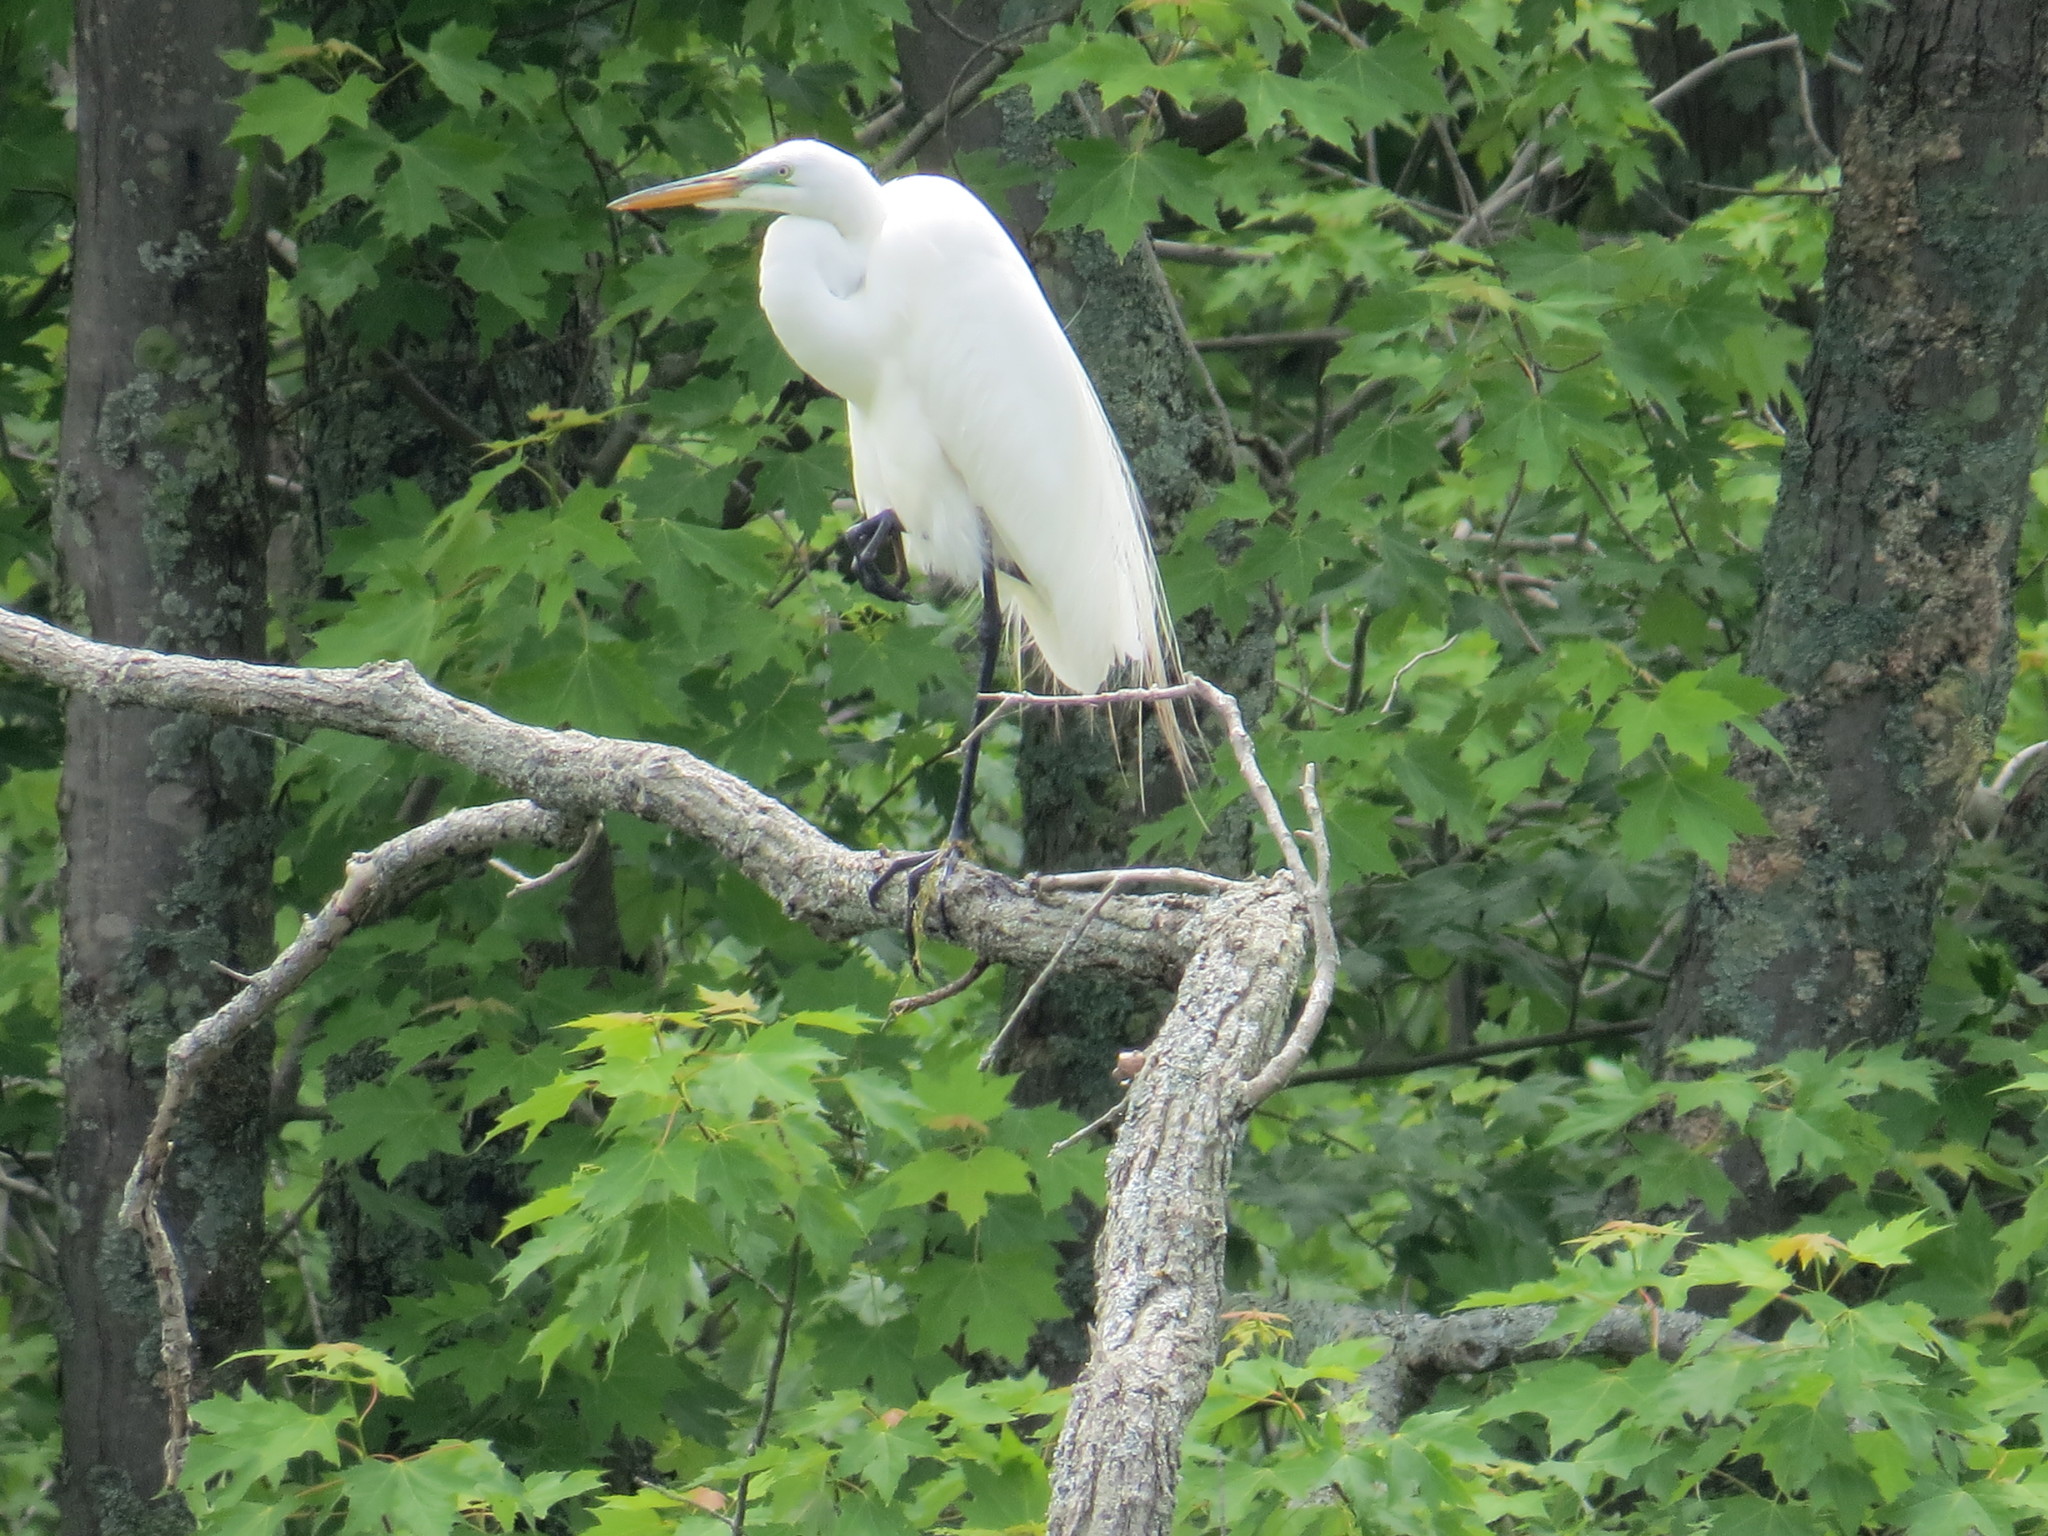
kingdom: Animalia
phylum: Chordata
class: Aves
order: Pelecaniformes
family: Ardeidae
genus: Ardea
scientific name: Ardea alba
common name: Great egret
